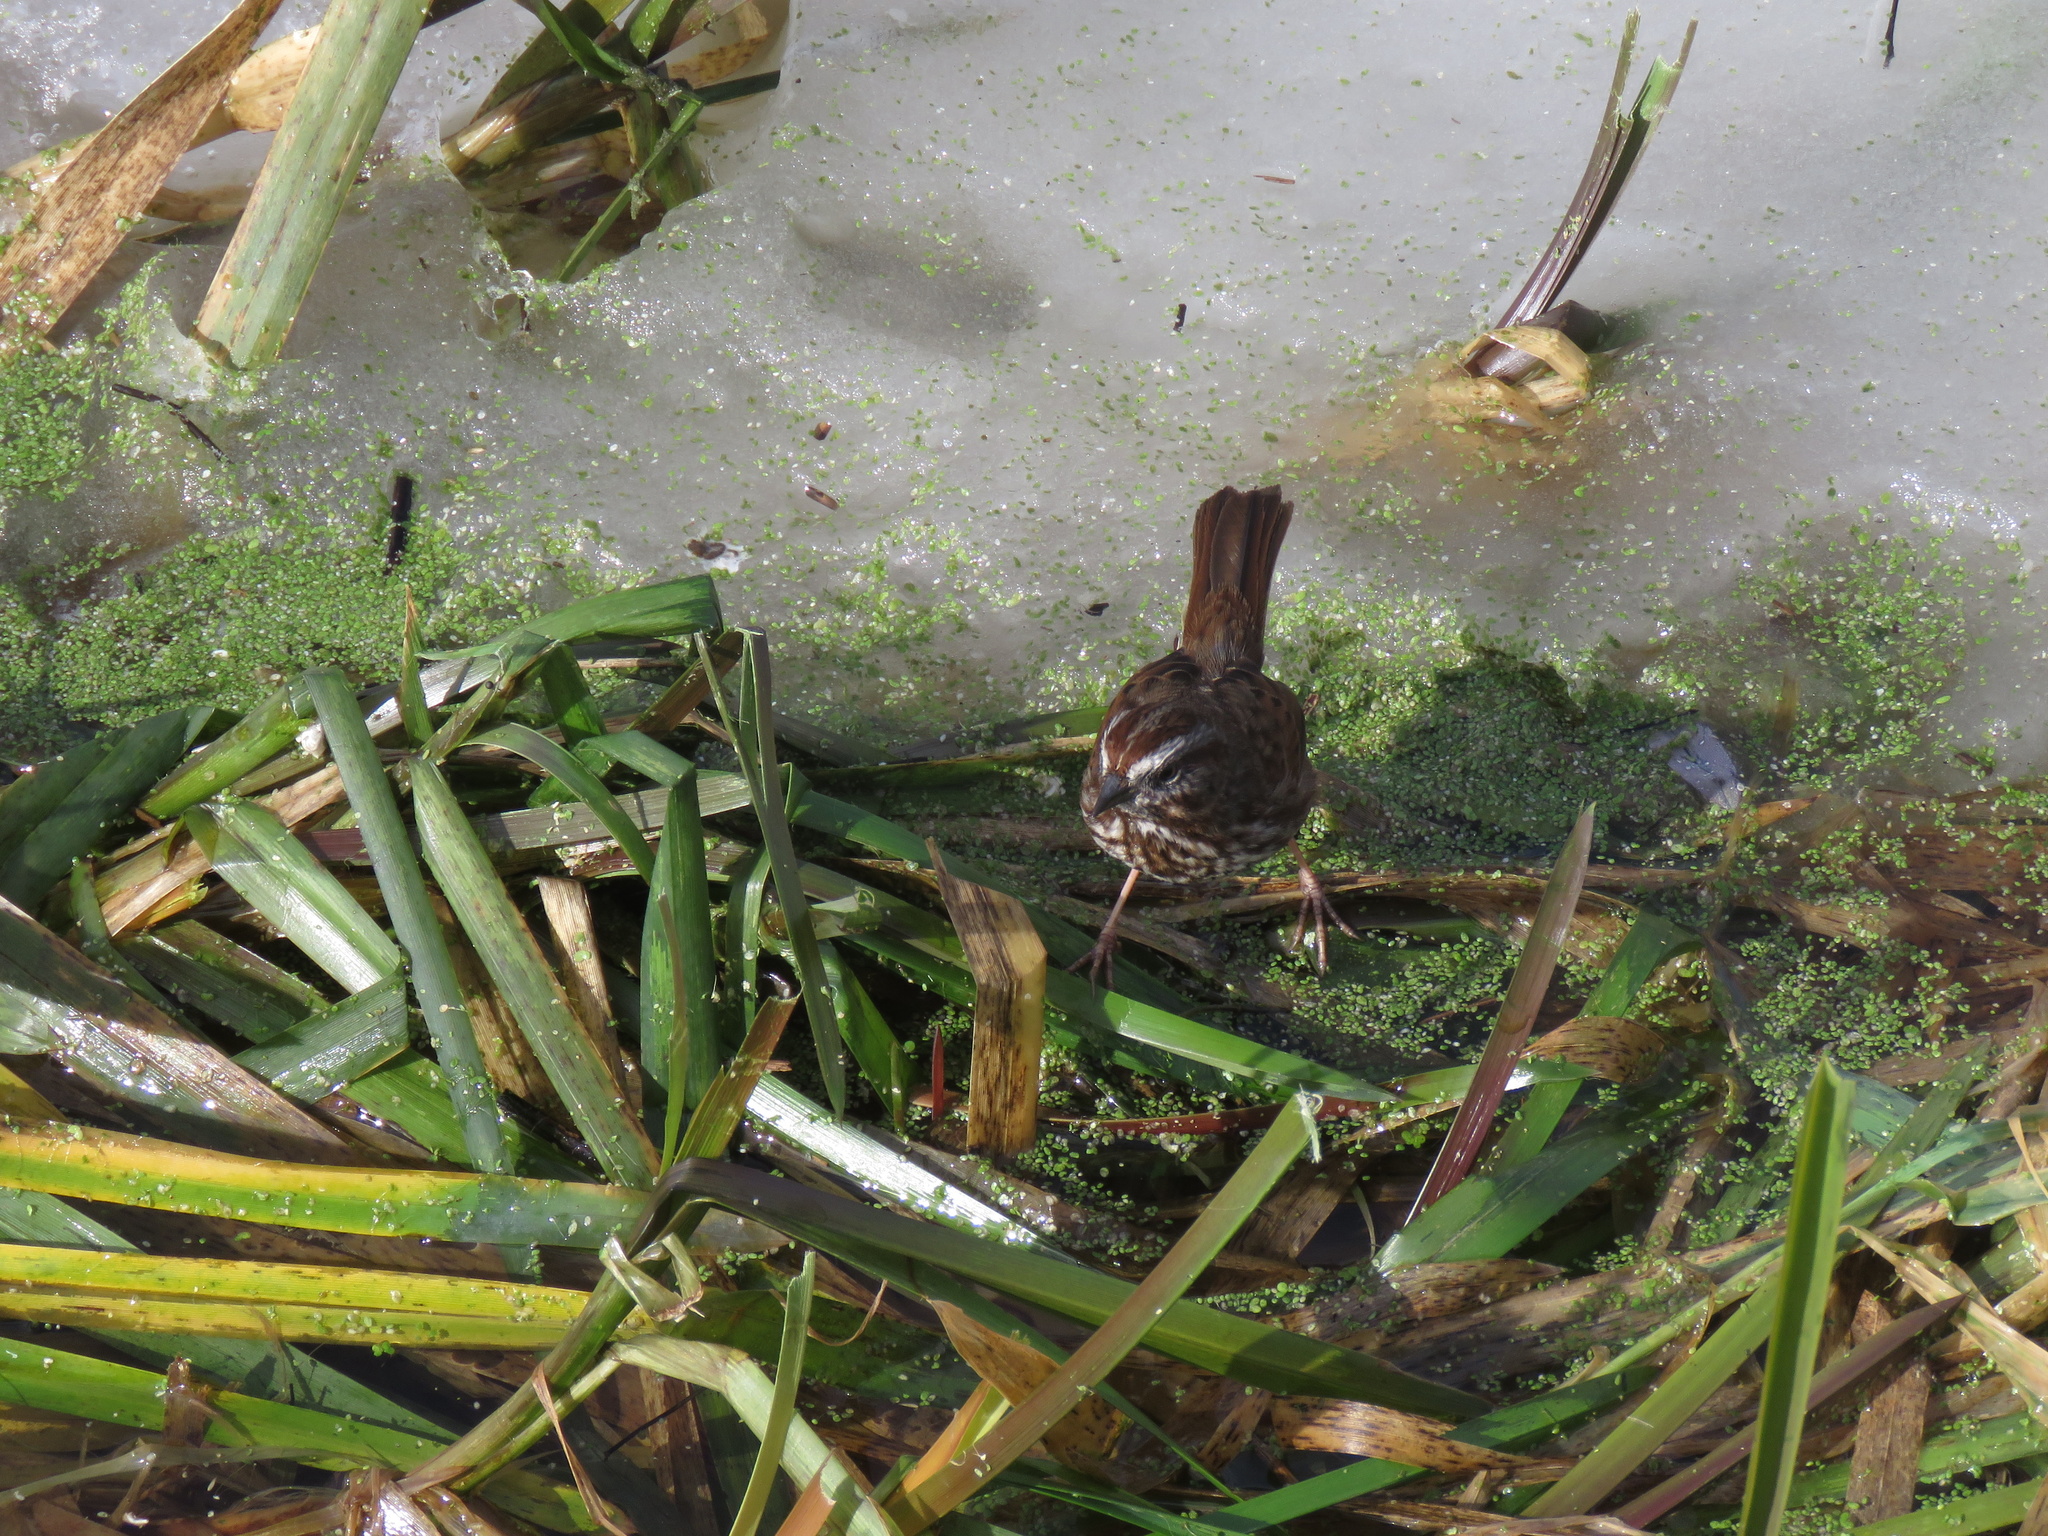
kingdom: Animalia
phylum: Chordata
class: Aves
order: Passeriformes
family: Passerellidae
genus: Melospiza
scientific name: Melospiza melodia
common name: Song sparrow
